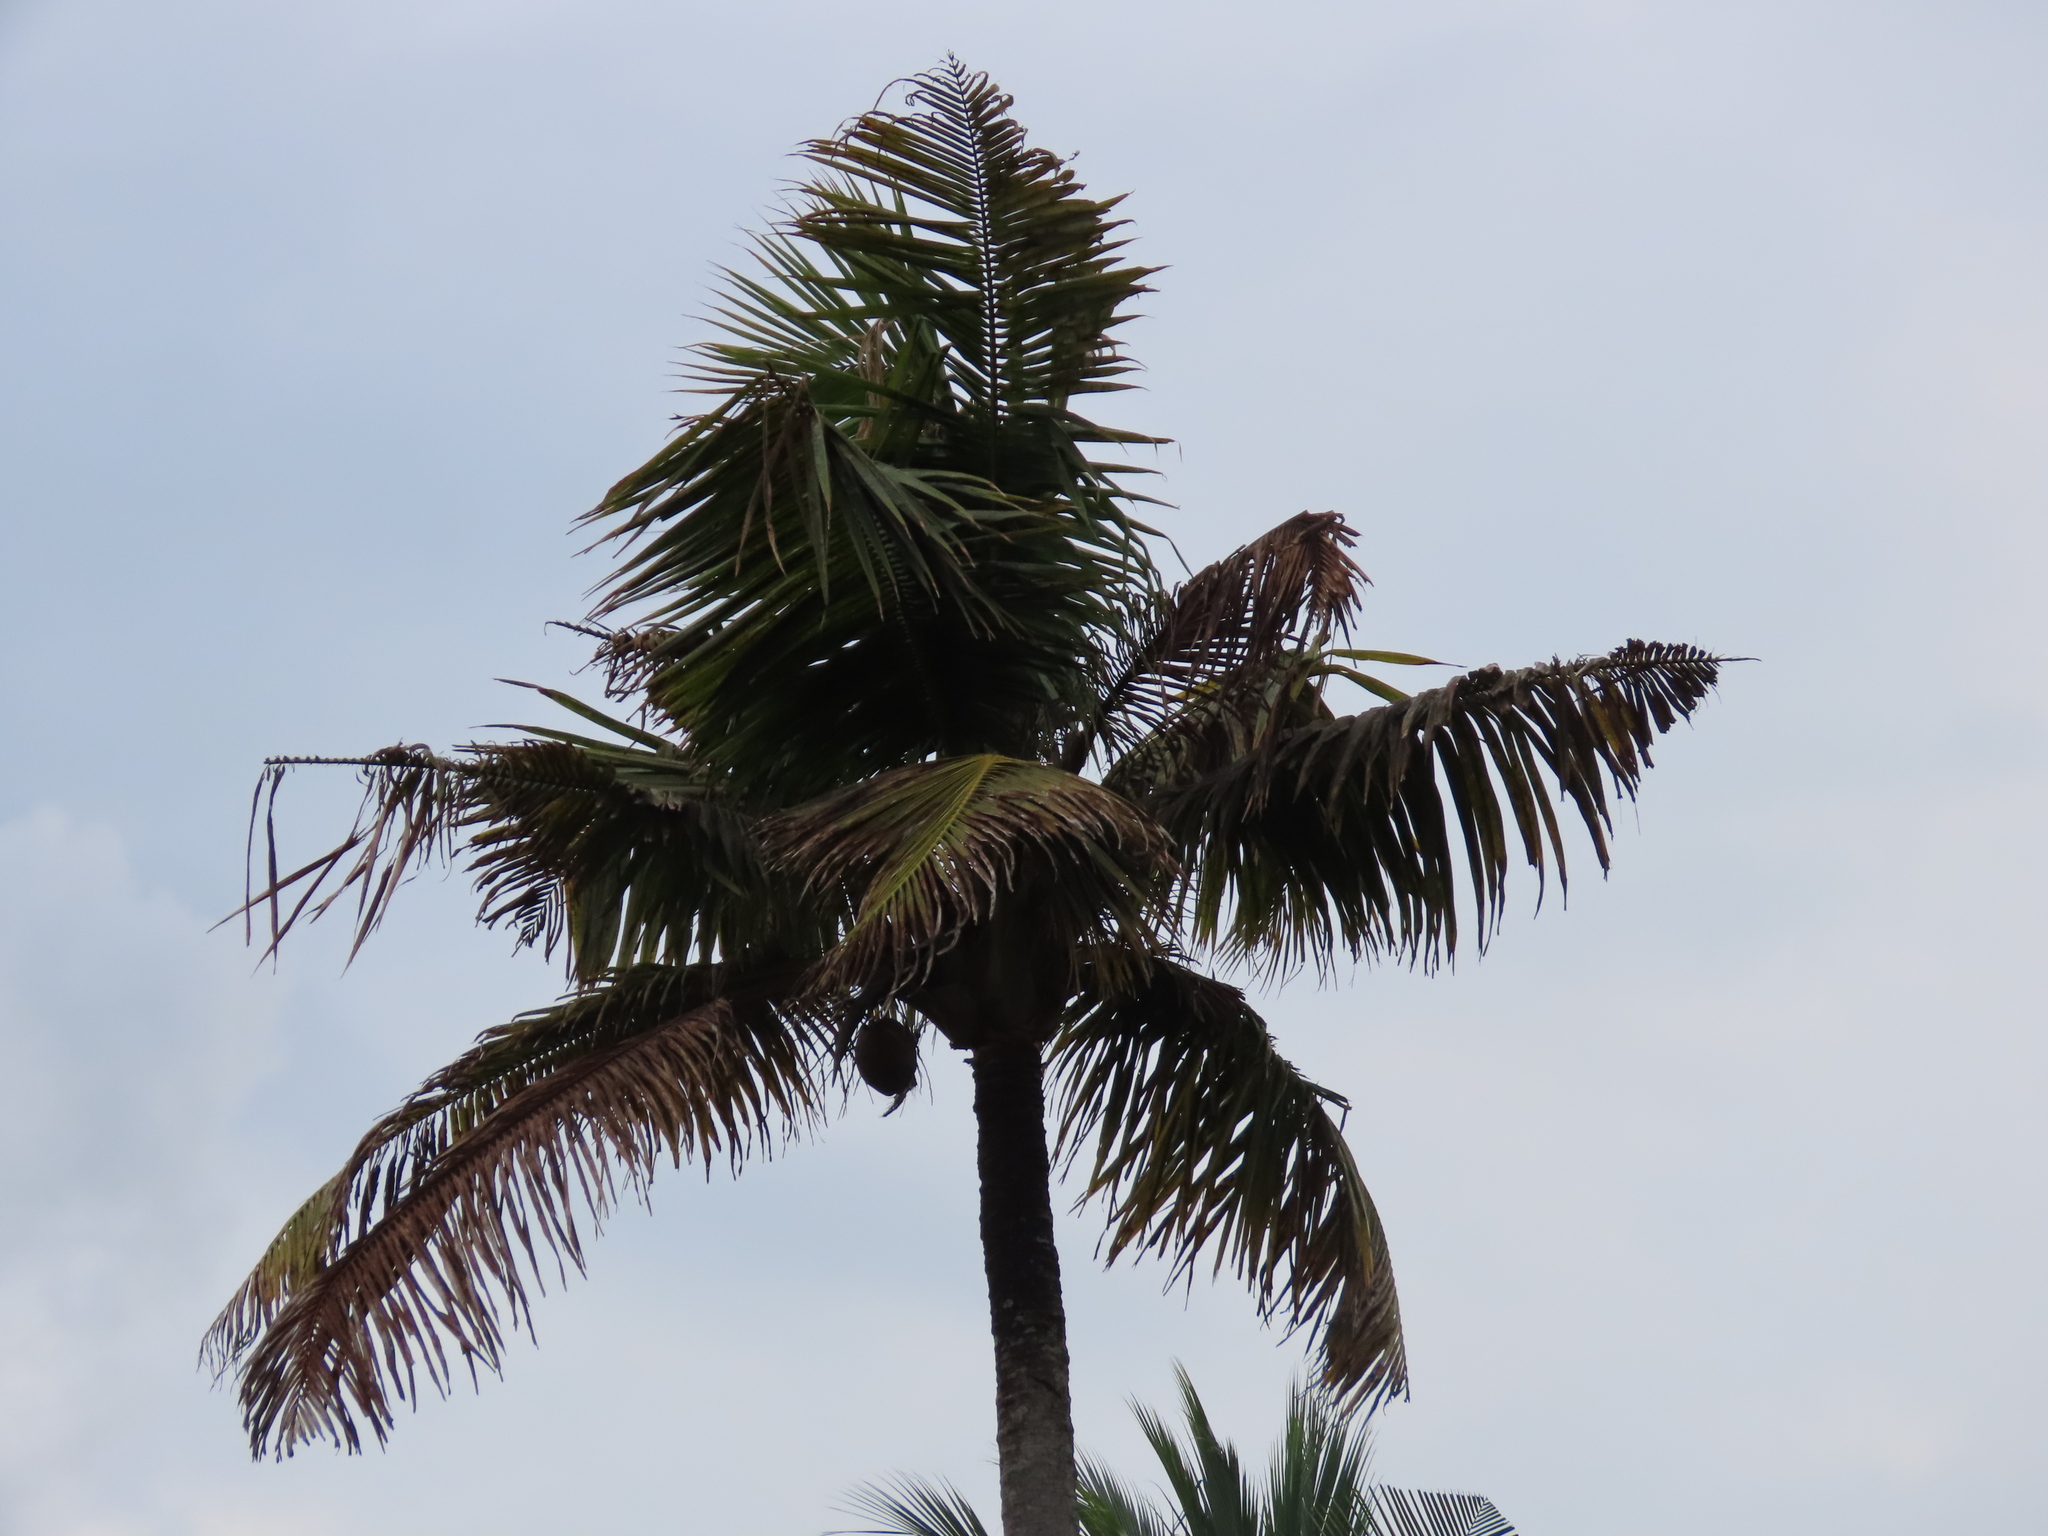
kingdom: Plantae
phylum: Tracheophyta
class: Liliopsida
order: Arecales
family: Arecaceae
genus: Cocos
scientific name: Cocos nucifera
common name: Coconut palm
